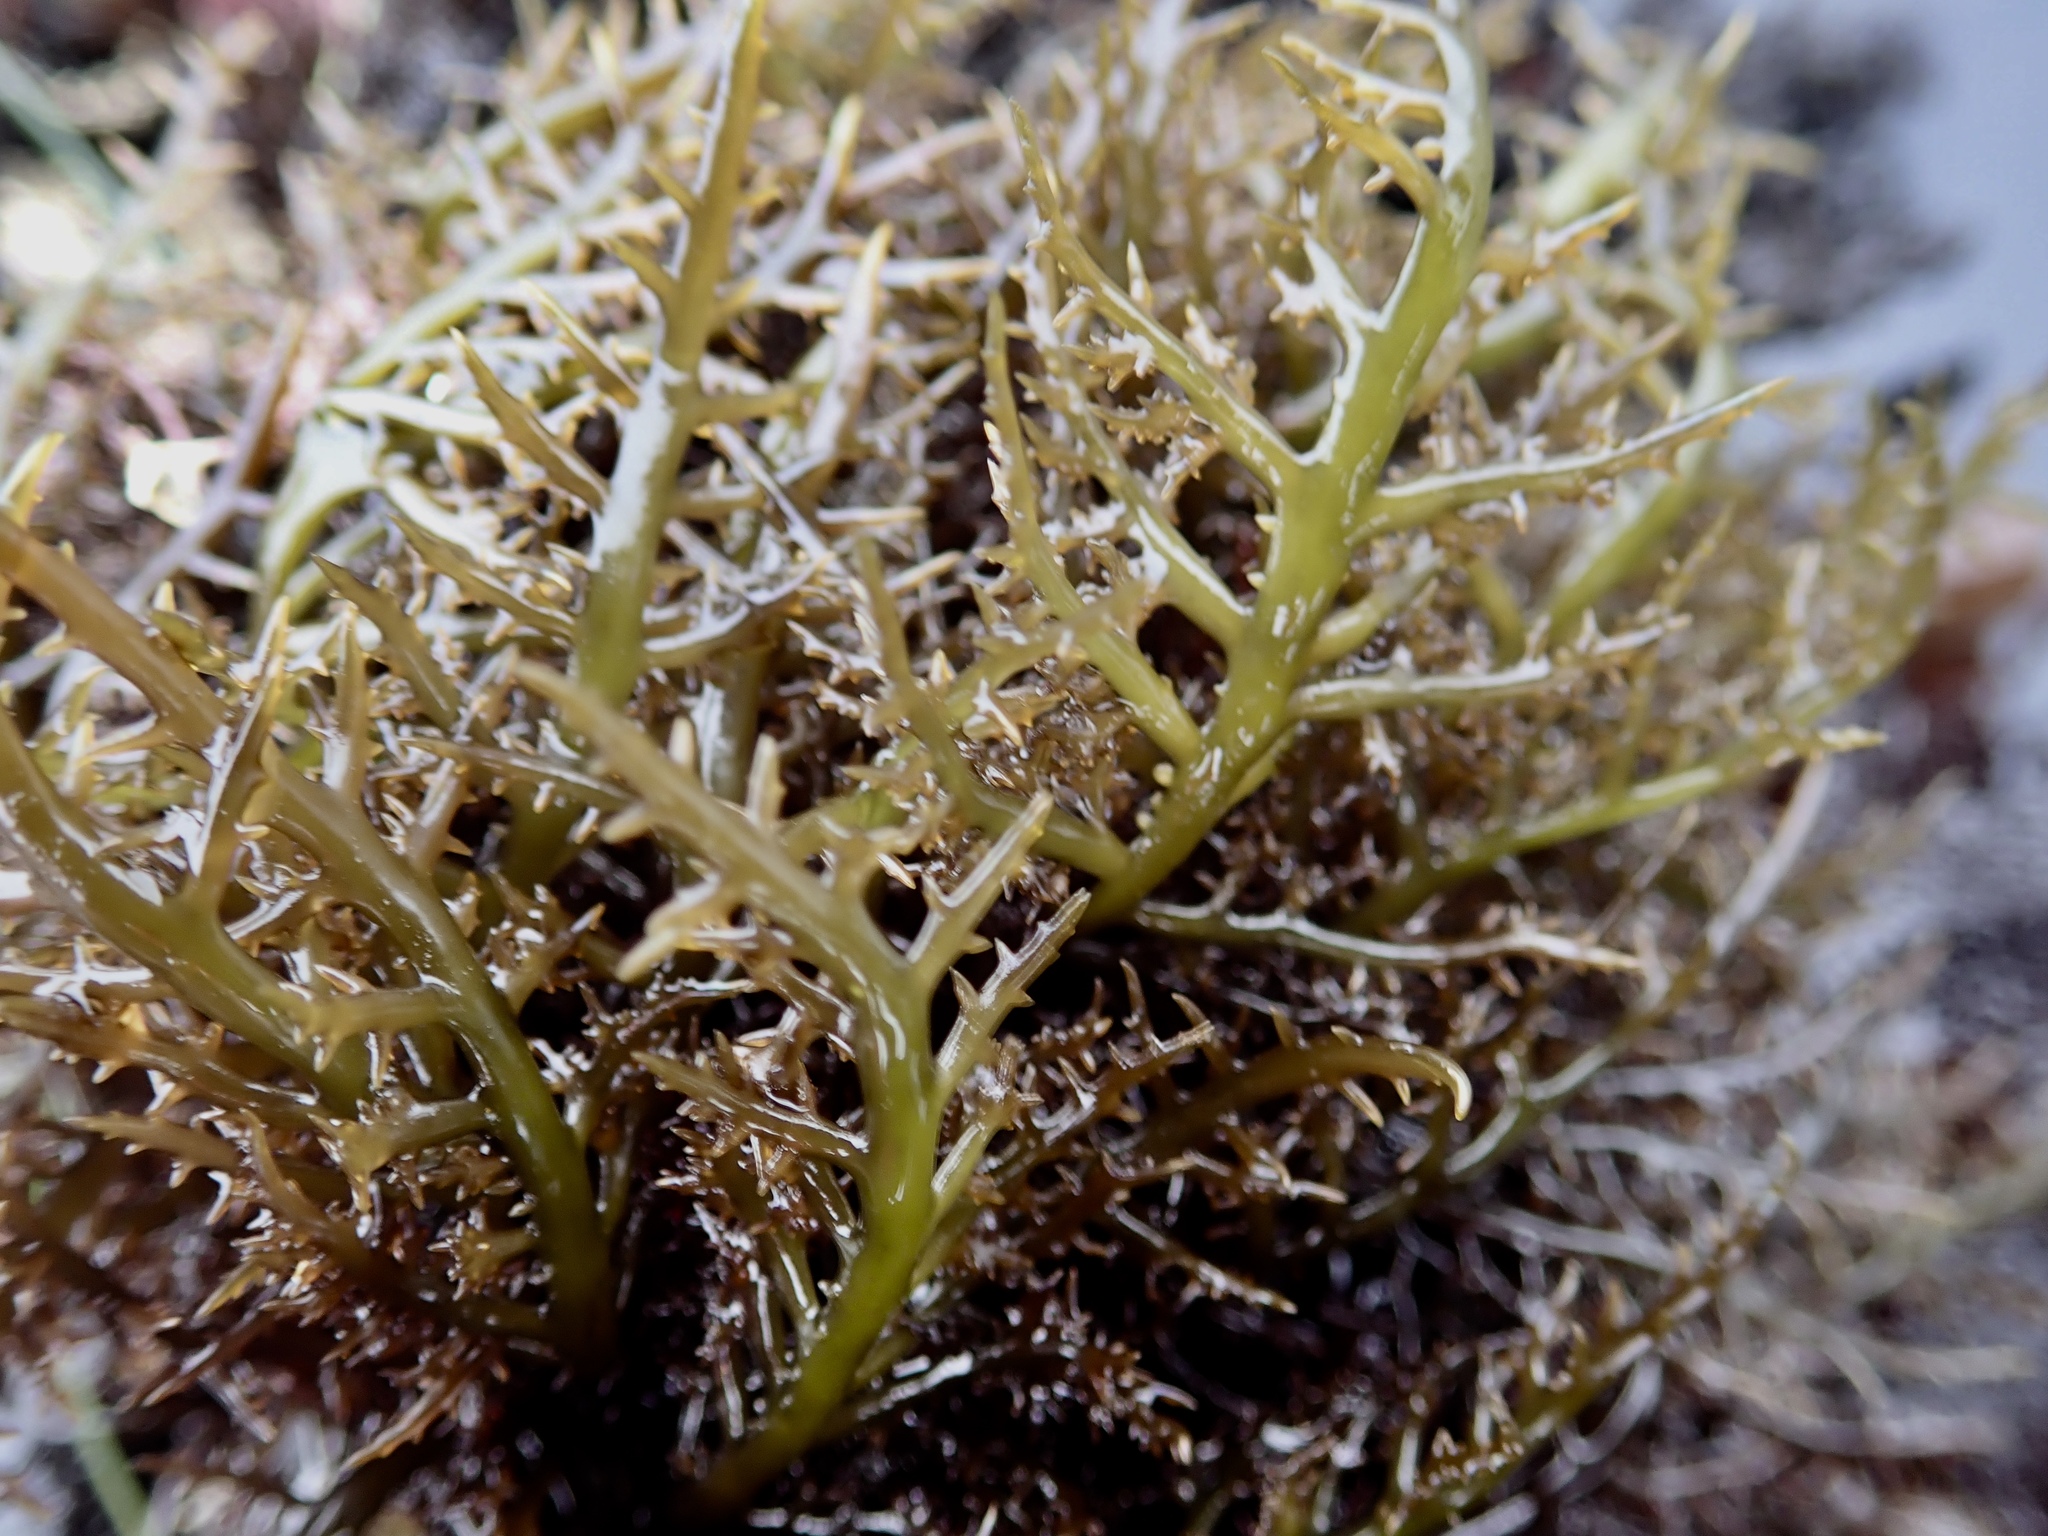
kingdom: Plantae
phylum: Rhodophyta
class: Florideophyceae
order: Gigartinales
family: Gigartinaceae
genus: Chondracanthus
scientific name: Chondracanthus canaliculatus
